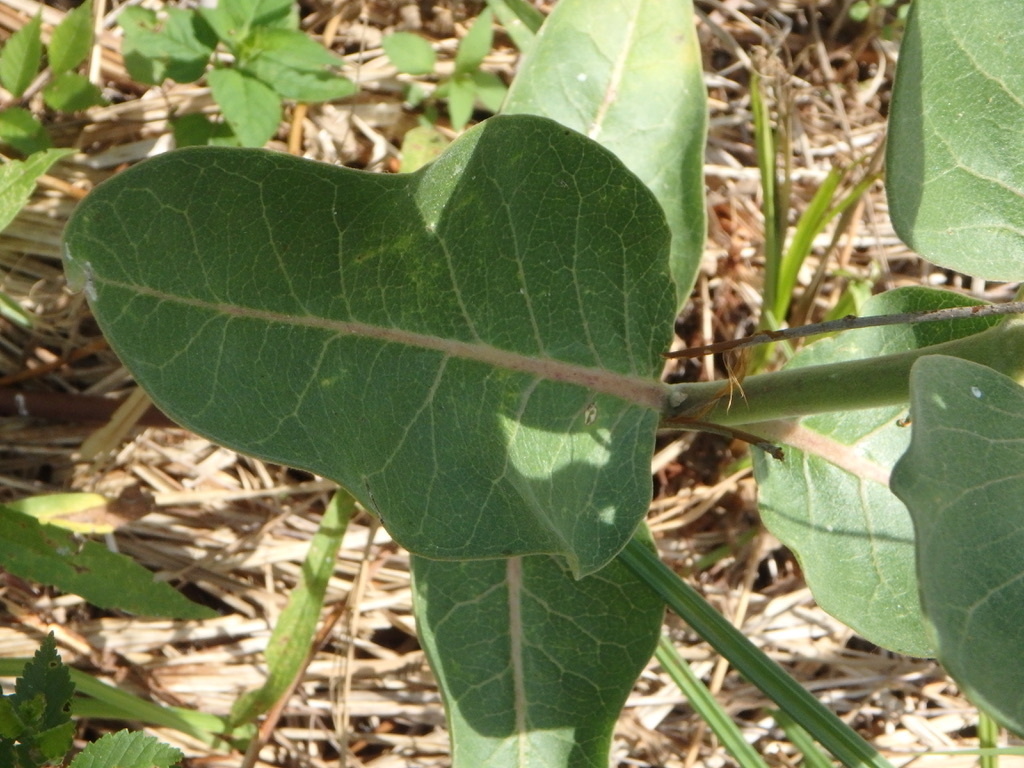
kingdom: Plantae
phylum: Tracheophyta
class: Magnoliopsida
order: Gentianales
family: Apocynaceae
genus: Asclepias
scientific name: Asclepias speciosa
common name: Showy milkweed
